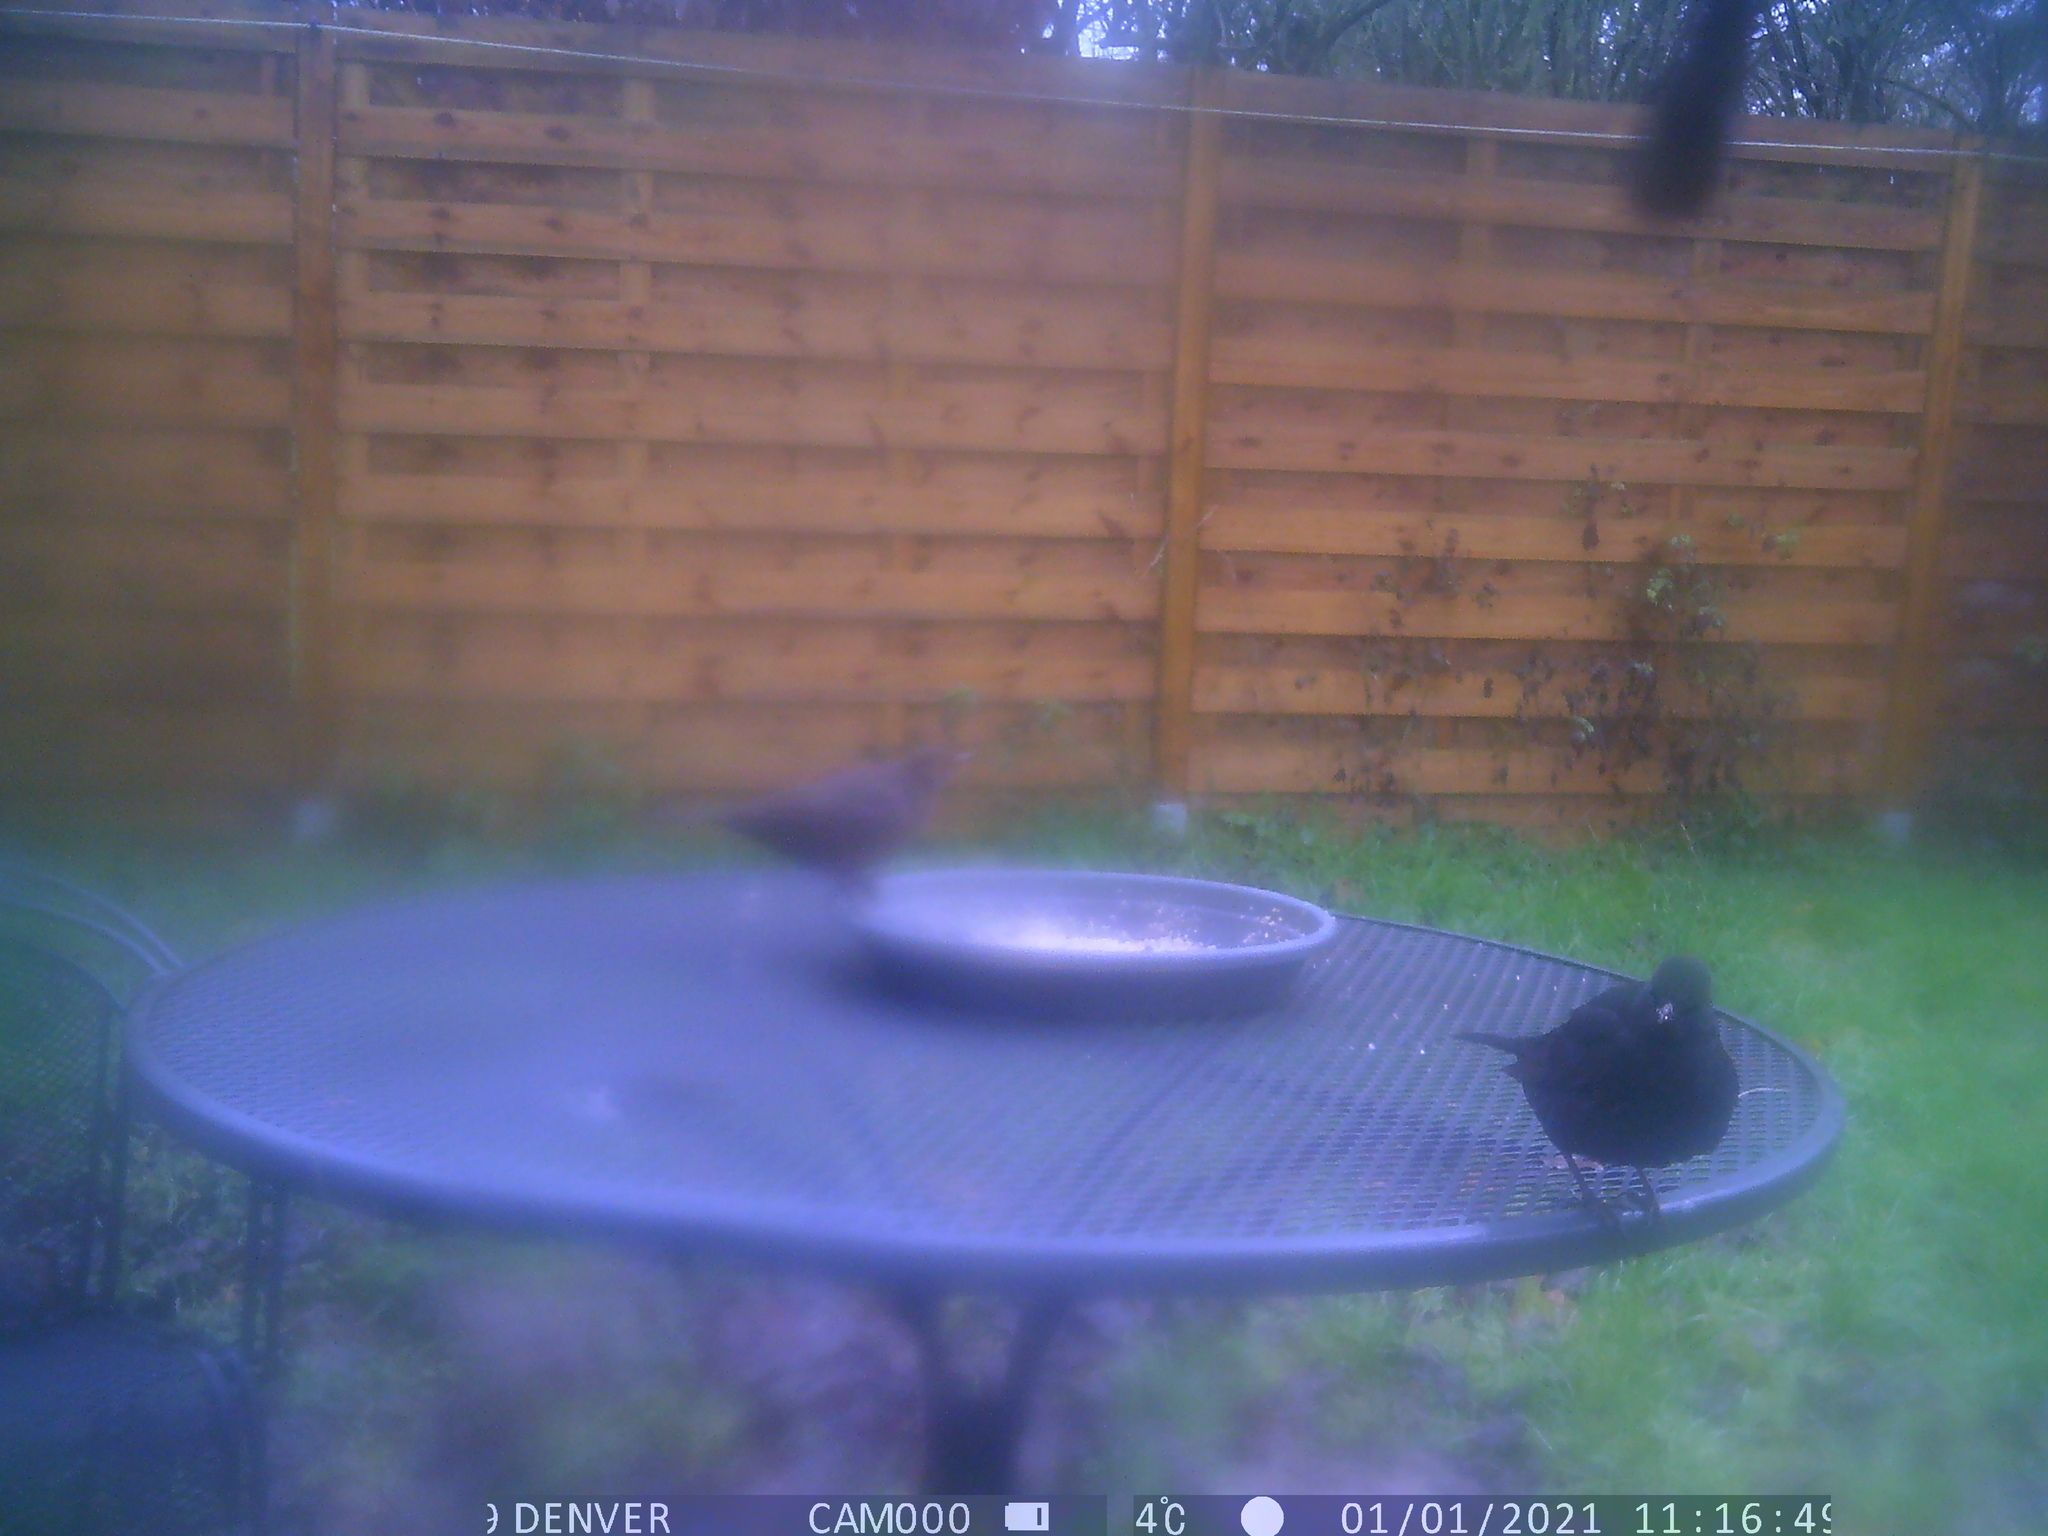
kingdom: Animalia
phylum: Chordata
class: Aves
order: Passeriformes
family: Turdidae
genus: Turdus
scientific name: Turdus merula
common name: Common blackbird
